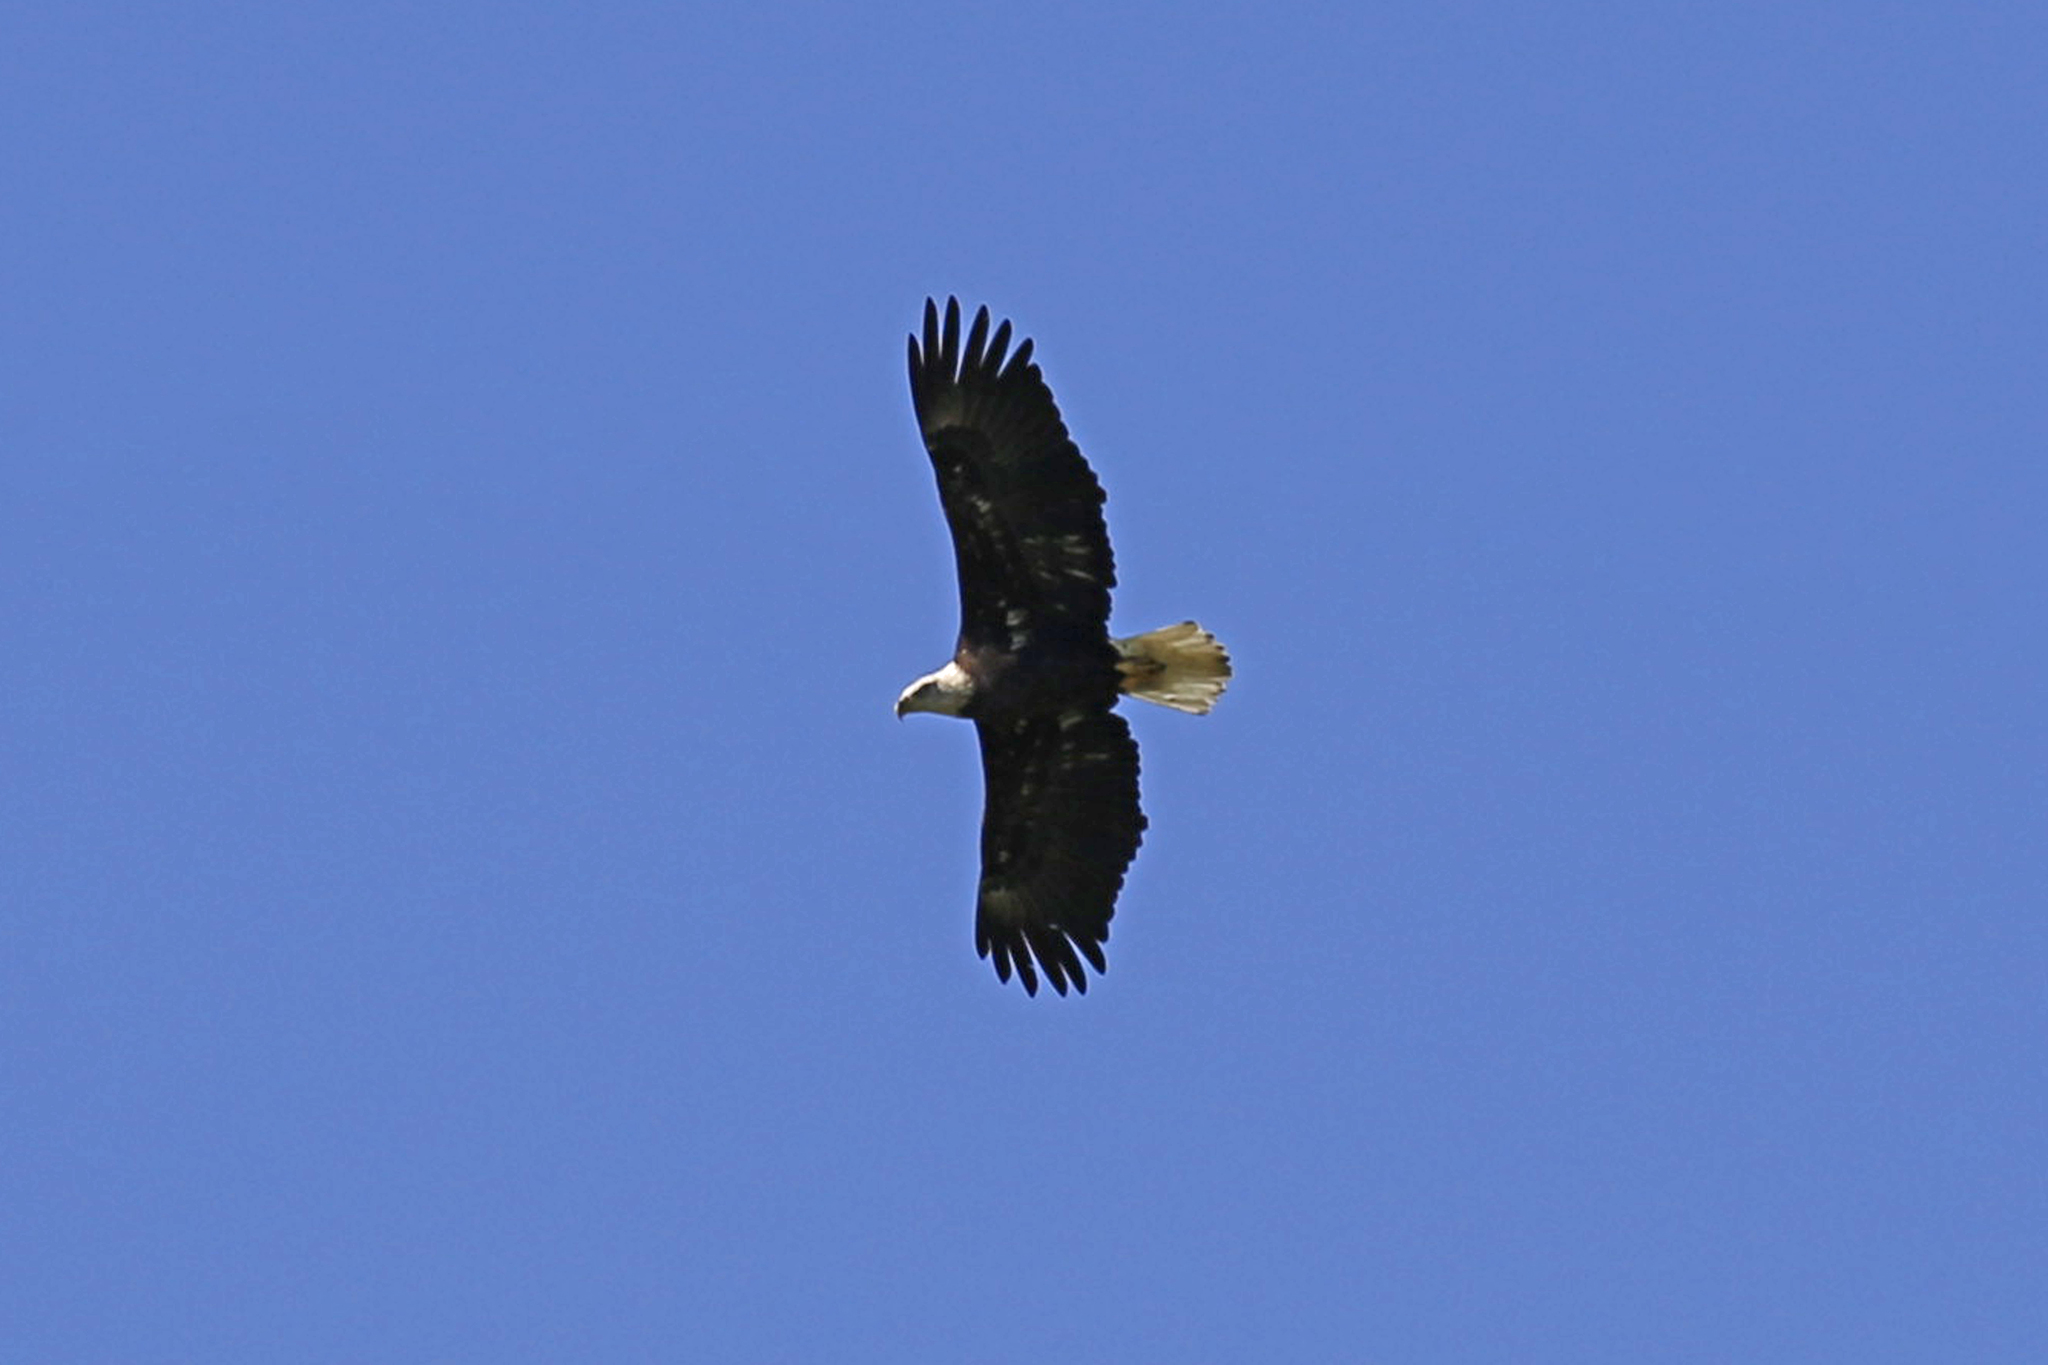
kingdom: Animalia
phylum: Chordata
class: Aves
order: Accipitriformes
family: Accipitridae
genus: Haliaeetus
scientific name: Haliaeetus leucocephalus
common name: Bald eagle
